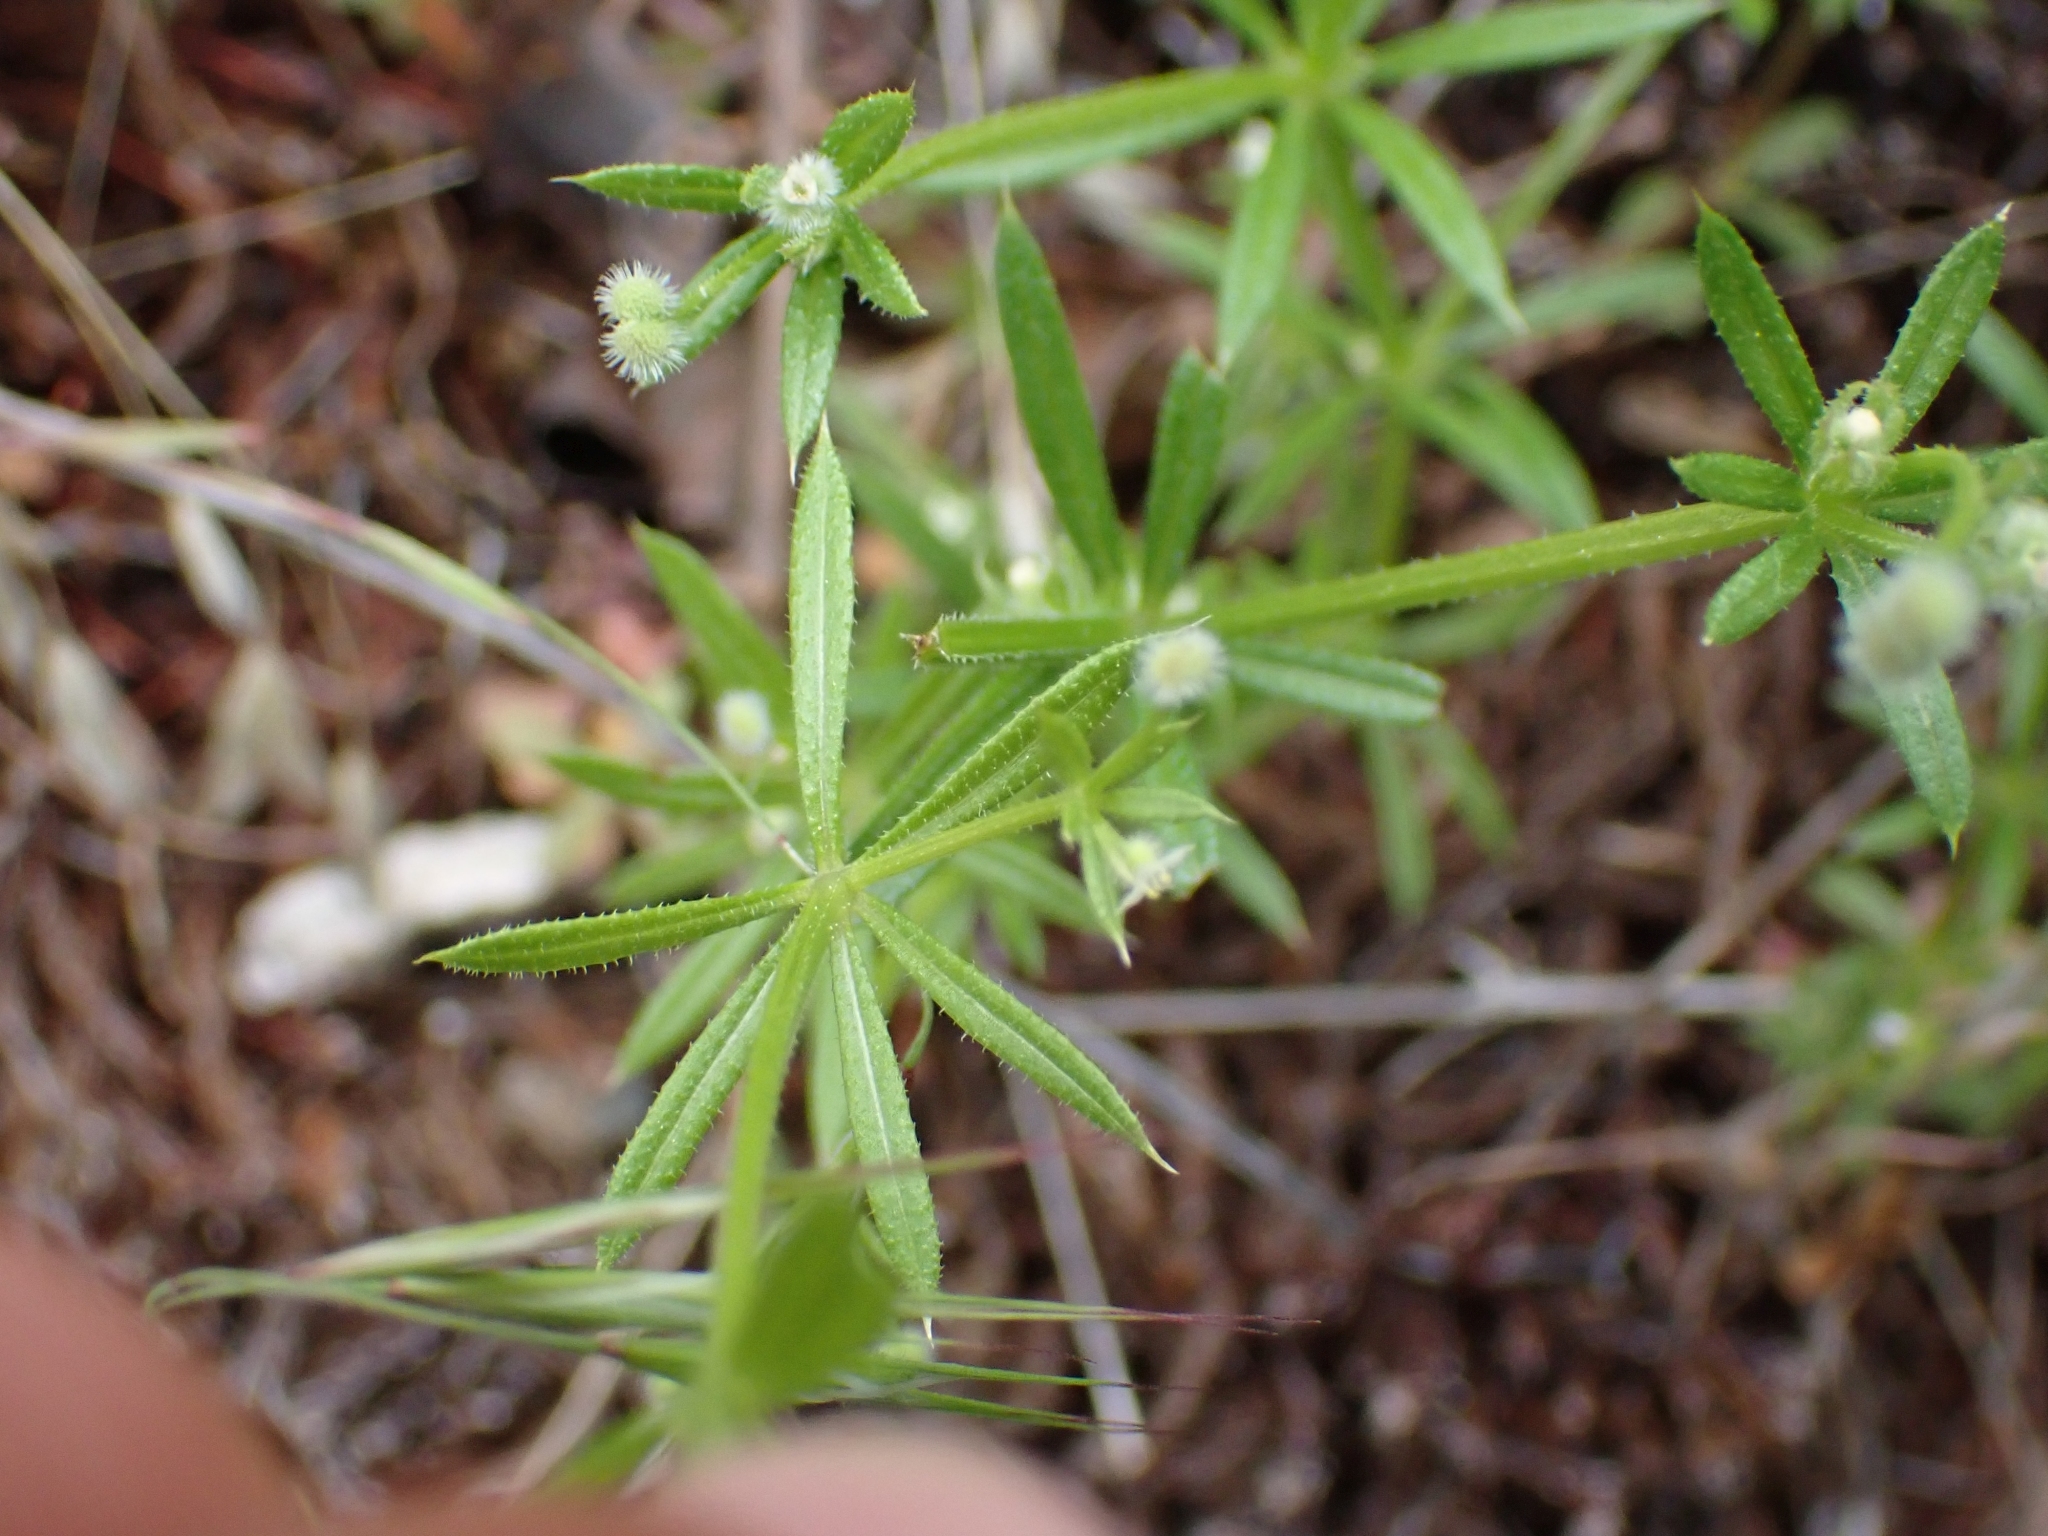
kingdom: Plantae
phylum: Tracheophyta
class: Magnoliopsida
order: Gentianales
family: Rubiaceae
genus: Galium
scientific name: Galium aparine
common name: Cleavers
